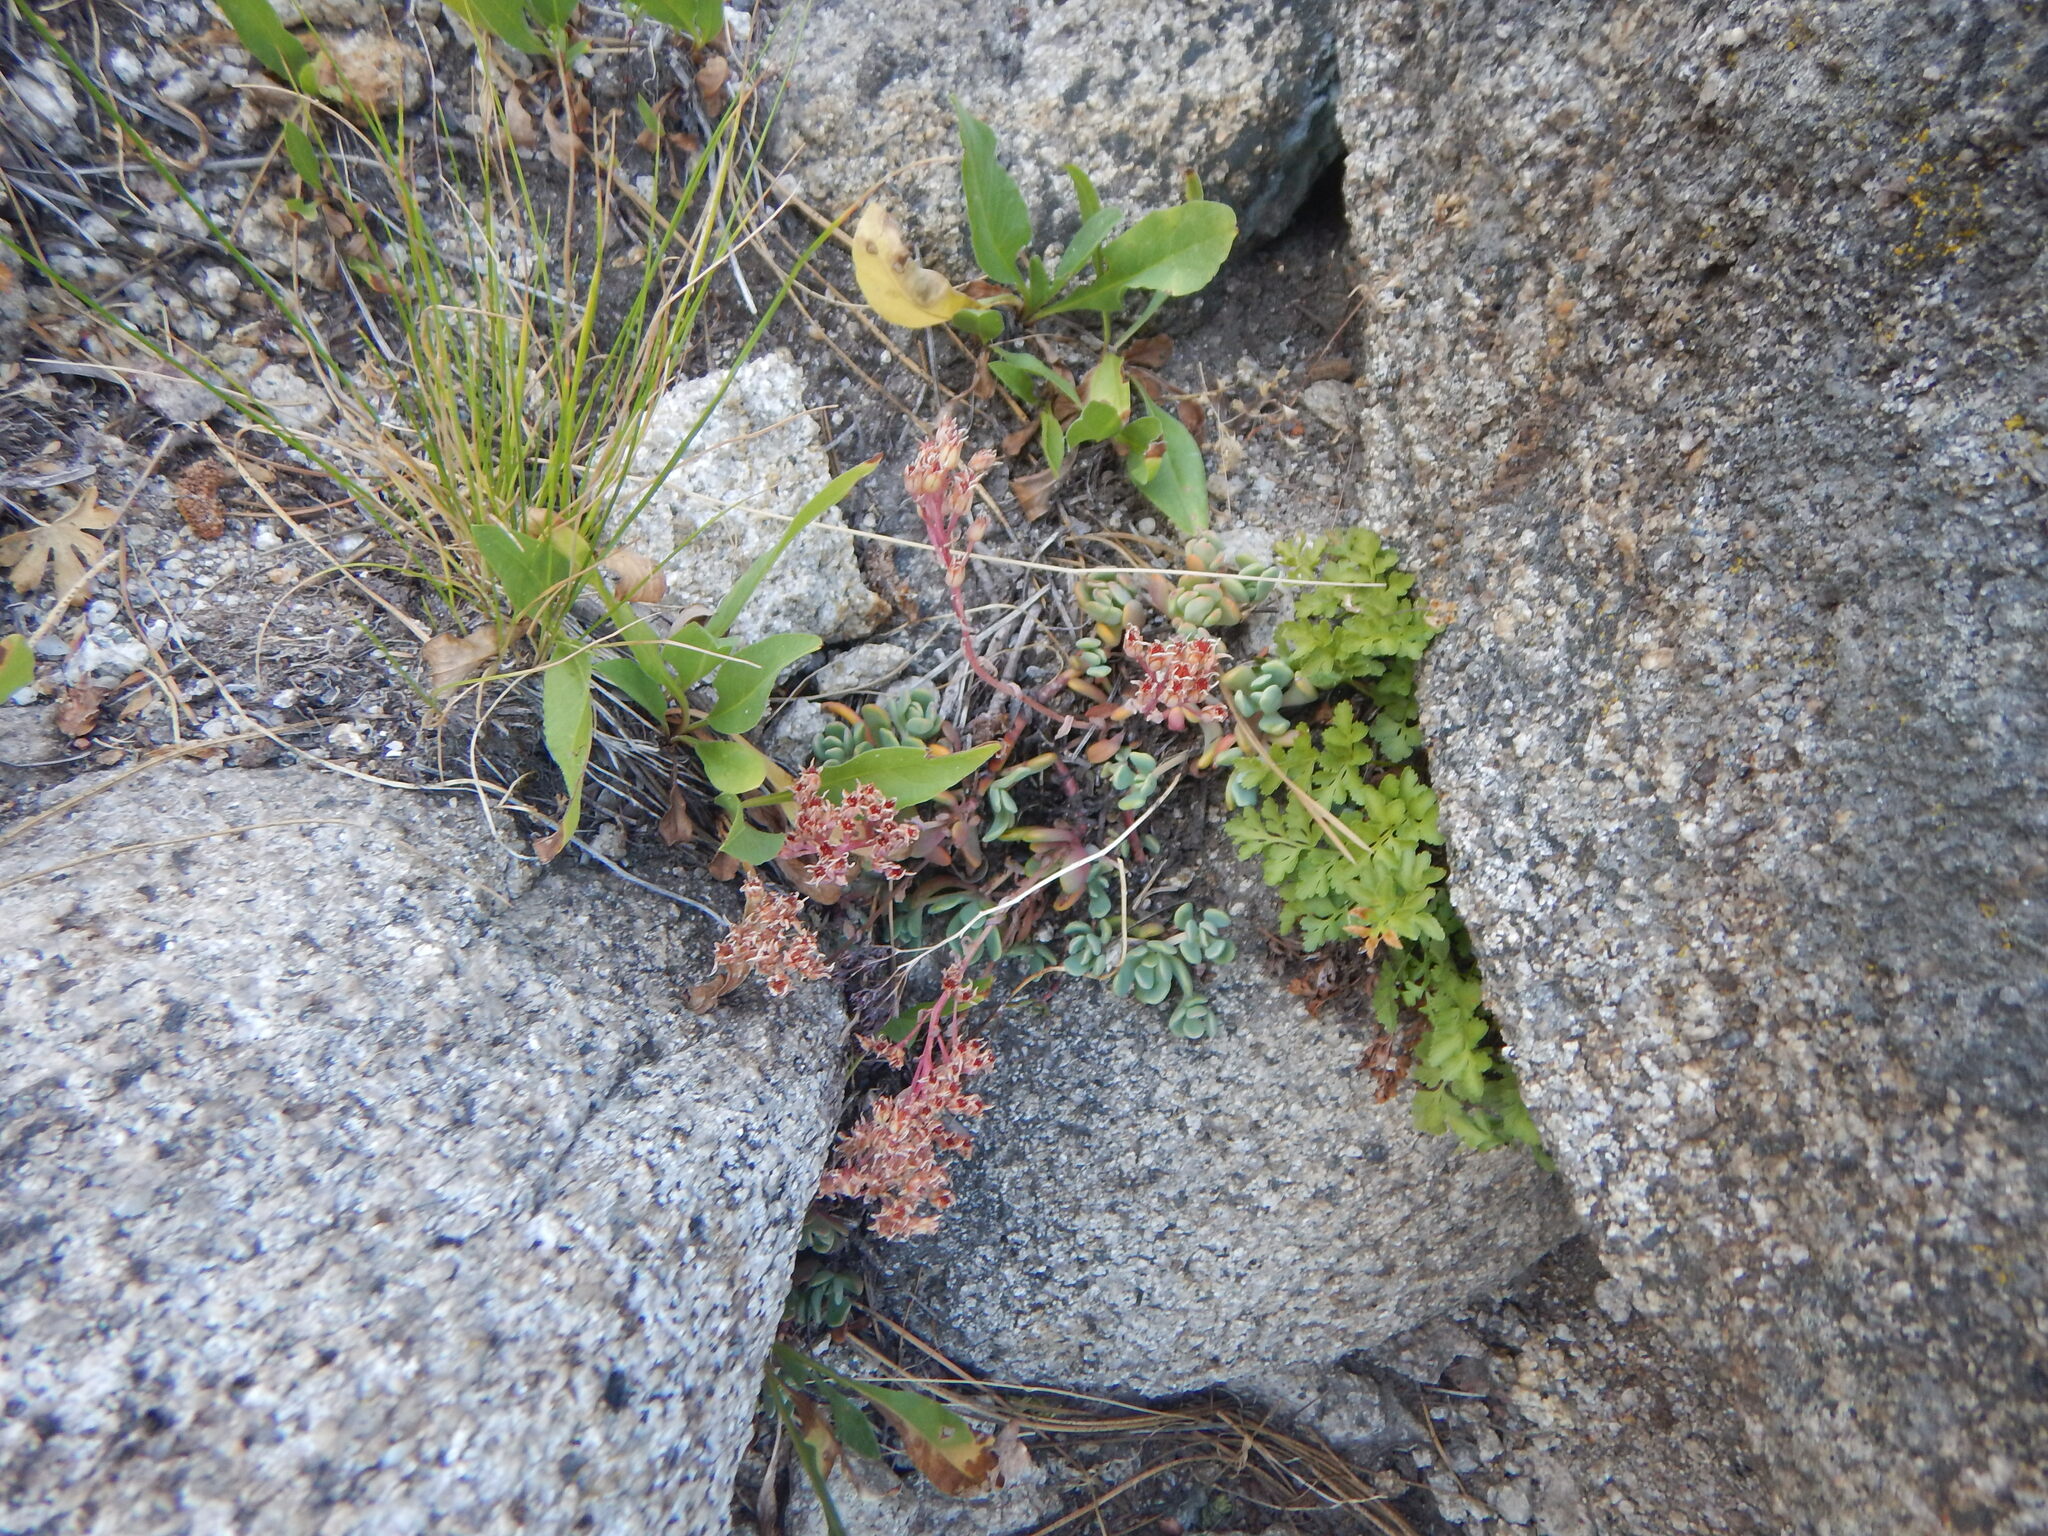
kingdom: Plantae
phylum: Tracheophyta
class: Magnoliopsida
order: Saxifragales
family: Crassulaceae
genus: Sedum
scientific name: Sedum obtusatum
